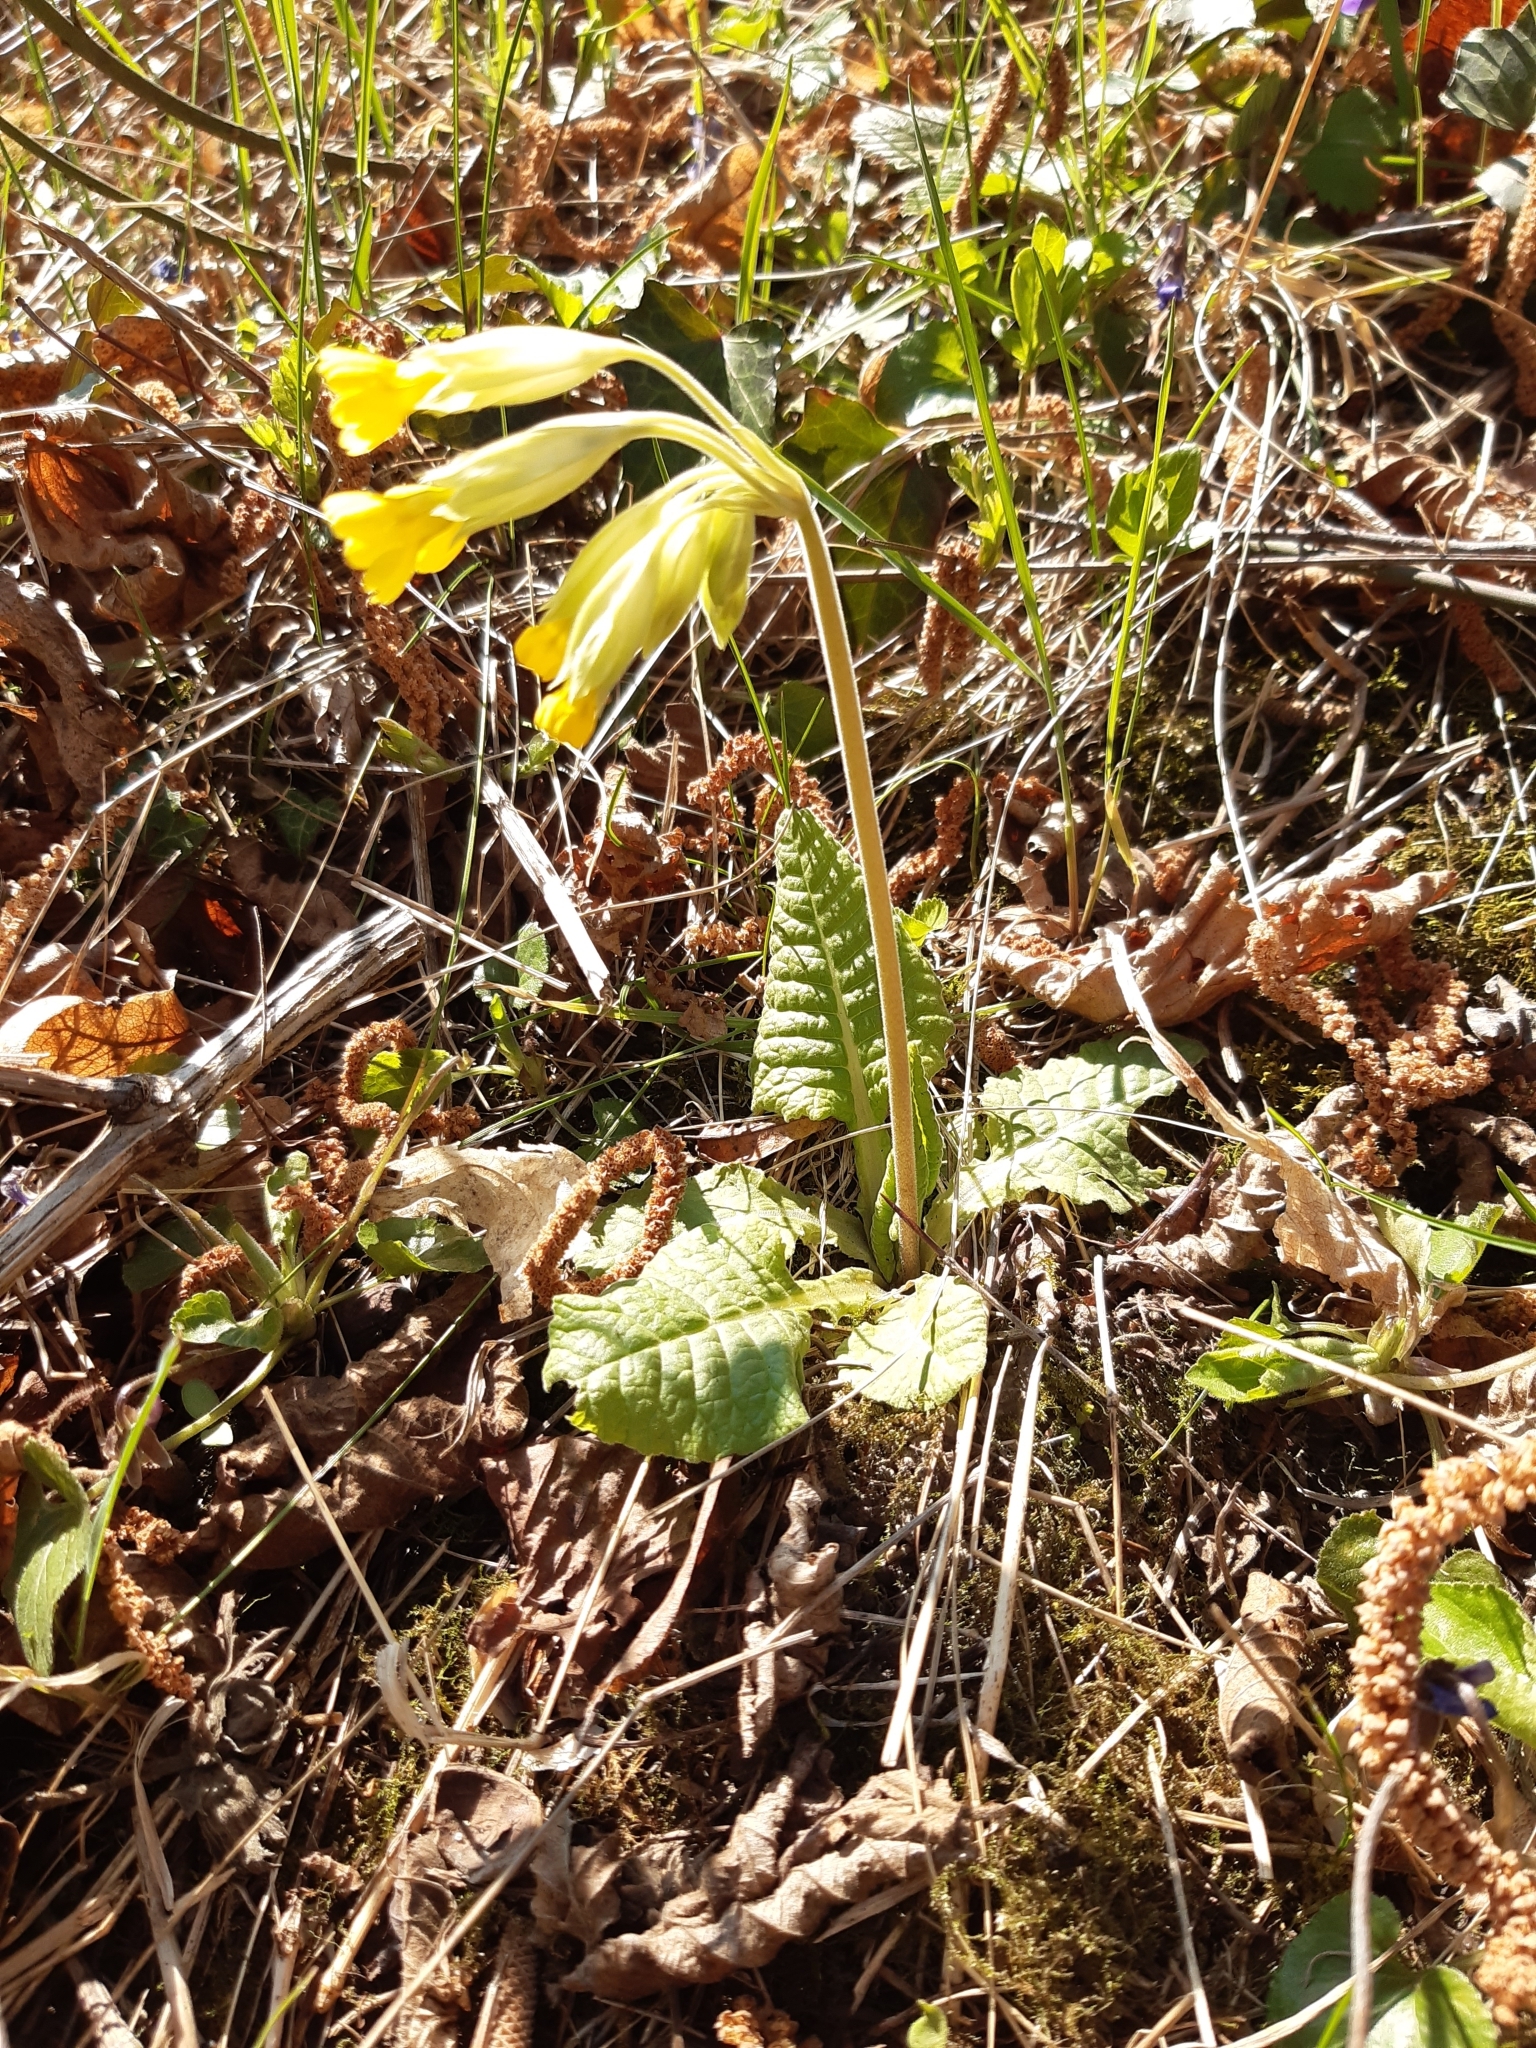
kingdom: Plantae
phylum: Tracheophyta
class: Magnoliopsida
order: Ericales
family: Primulaceae
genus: Primula
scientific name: Primula veris
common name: Cowslip
